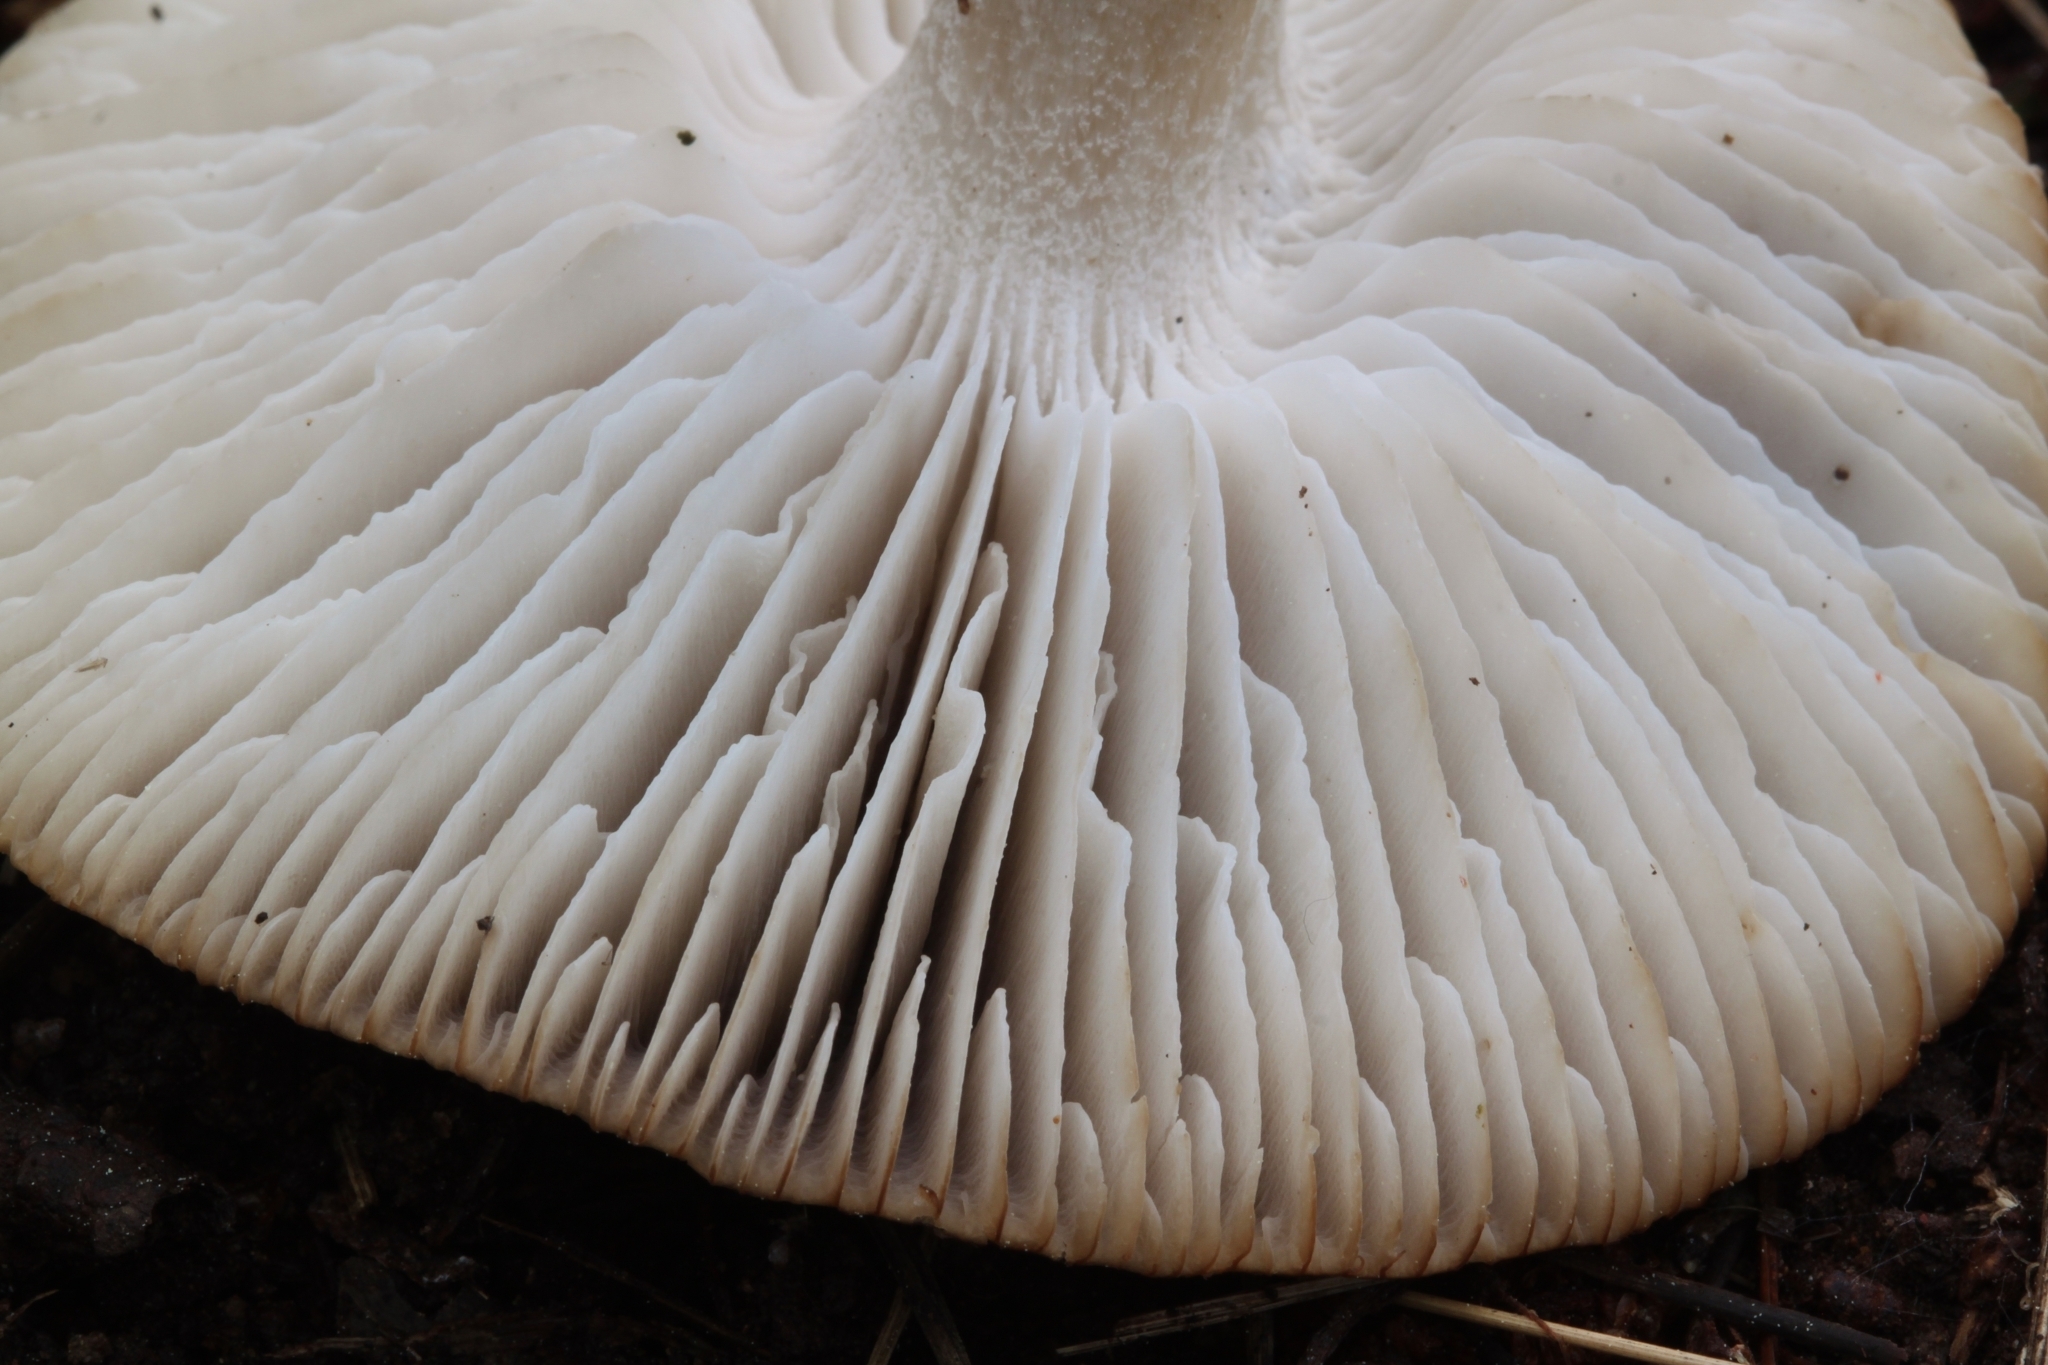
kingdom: Fungi
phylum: Basidiomycota
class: Agaricomycetes
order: Agaricales
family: Tricholomataceae
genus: Tricholoma
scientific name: Tricholoma terreum
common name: Grey knight
